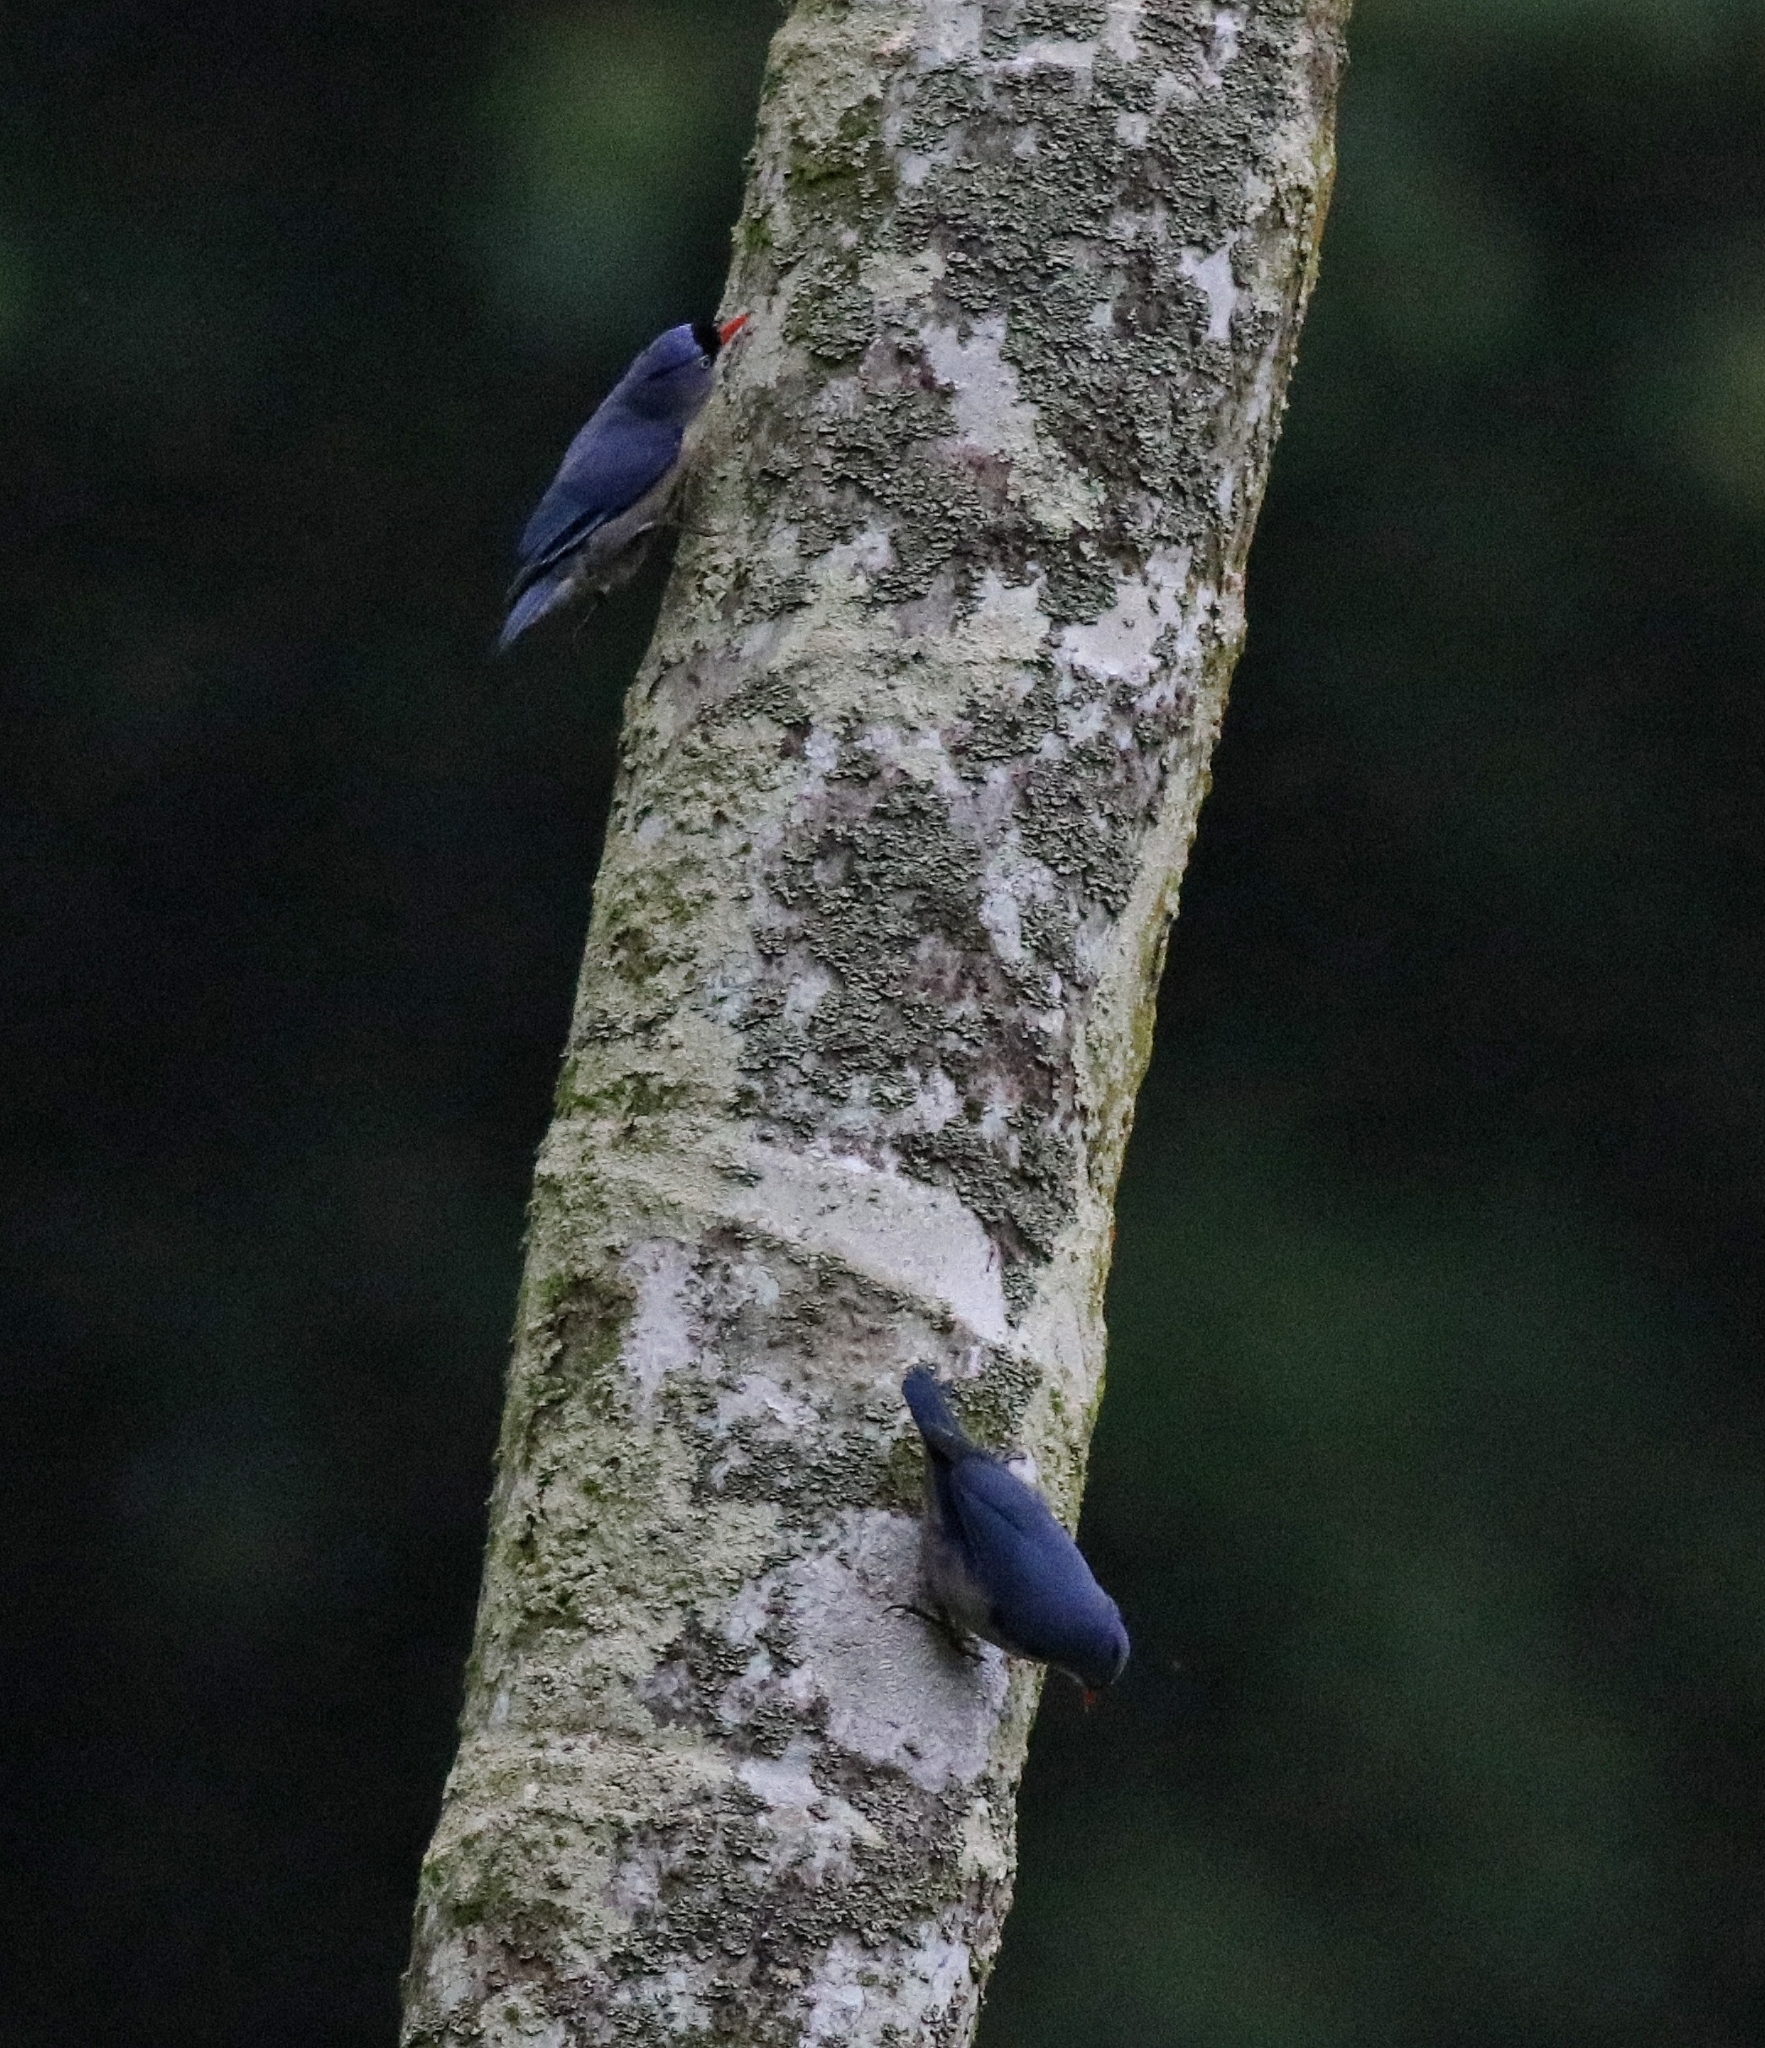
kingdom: Animalia
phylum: Chordata
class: Aves
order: Passeriformes
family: Sittidae
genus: Sitta
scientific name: Sitta frontalis
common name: Velvet-fronted nuthatch
